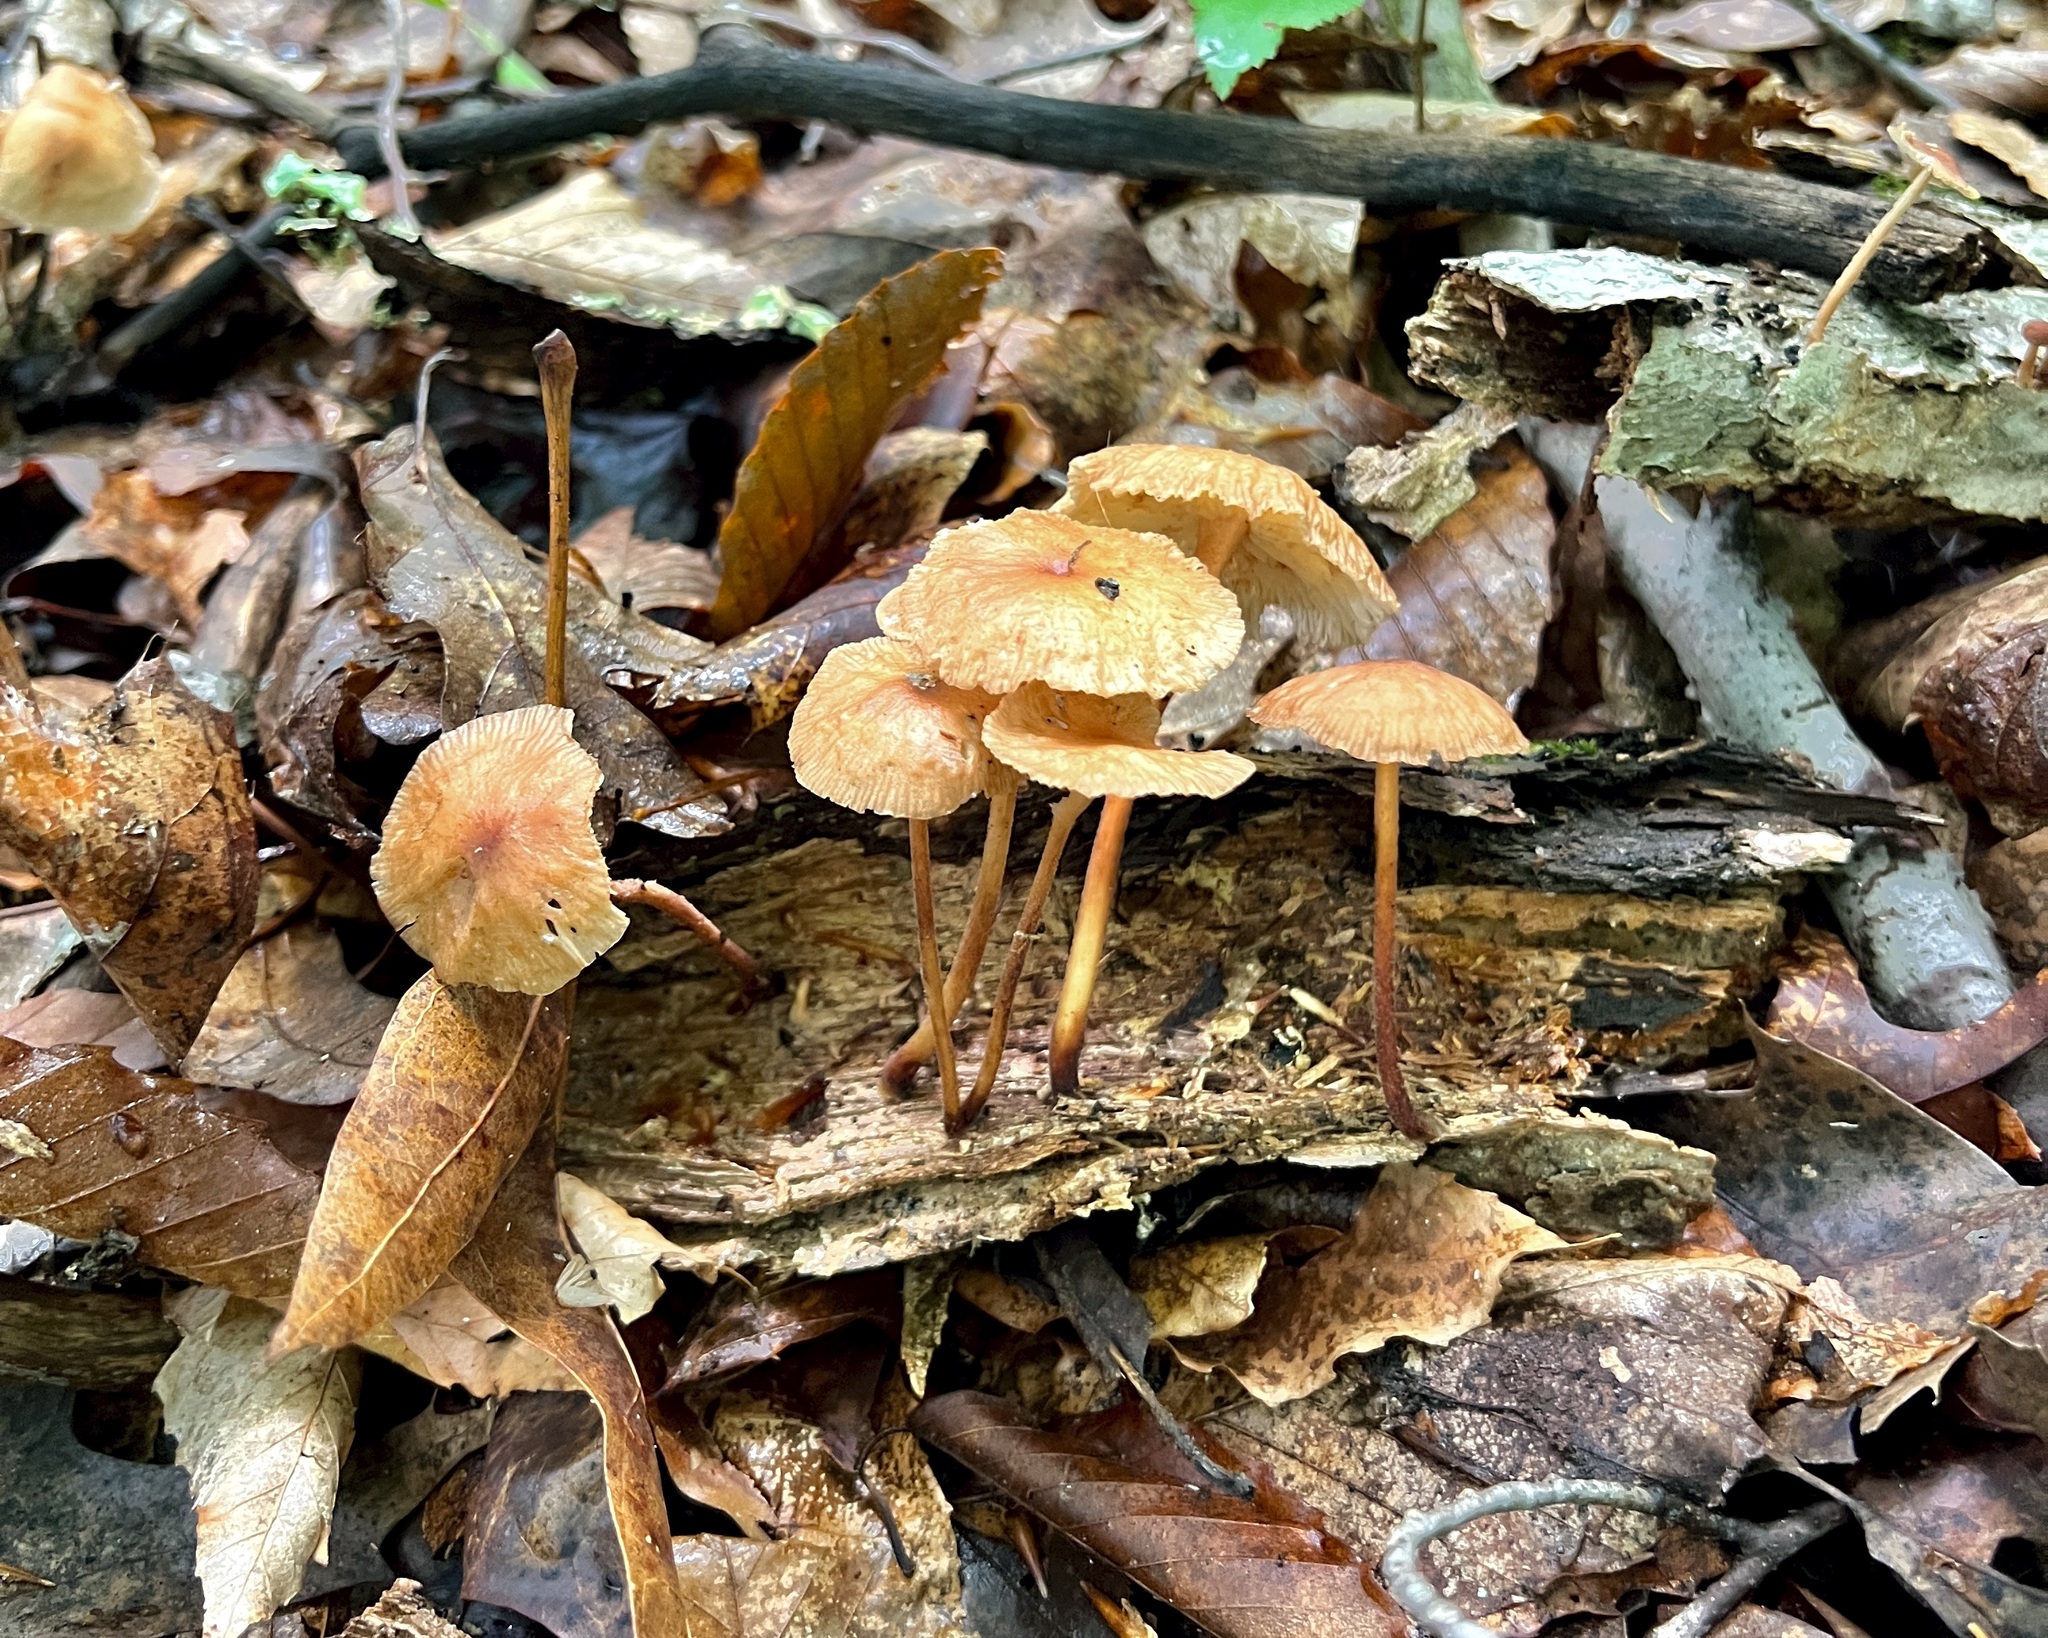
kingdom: Fungi
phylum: Basidiomycota
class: Agaricomycetes
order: Agaricales
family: Omphalotaceae
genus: Collybiopsis
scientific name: Collybiopsis dichroa
